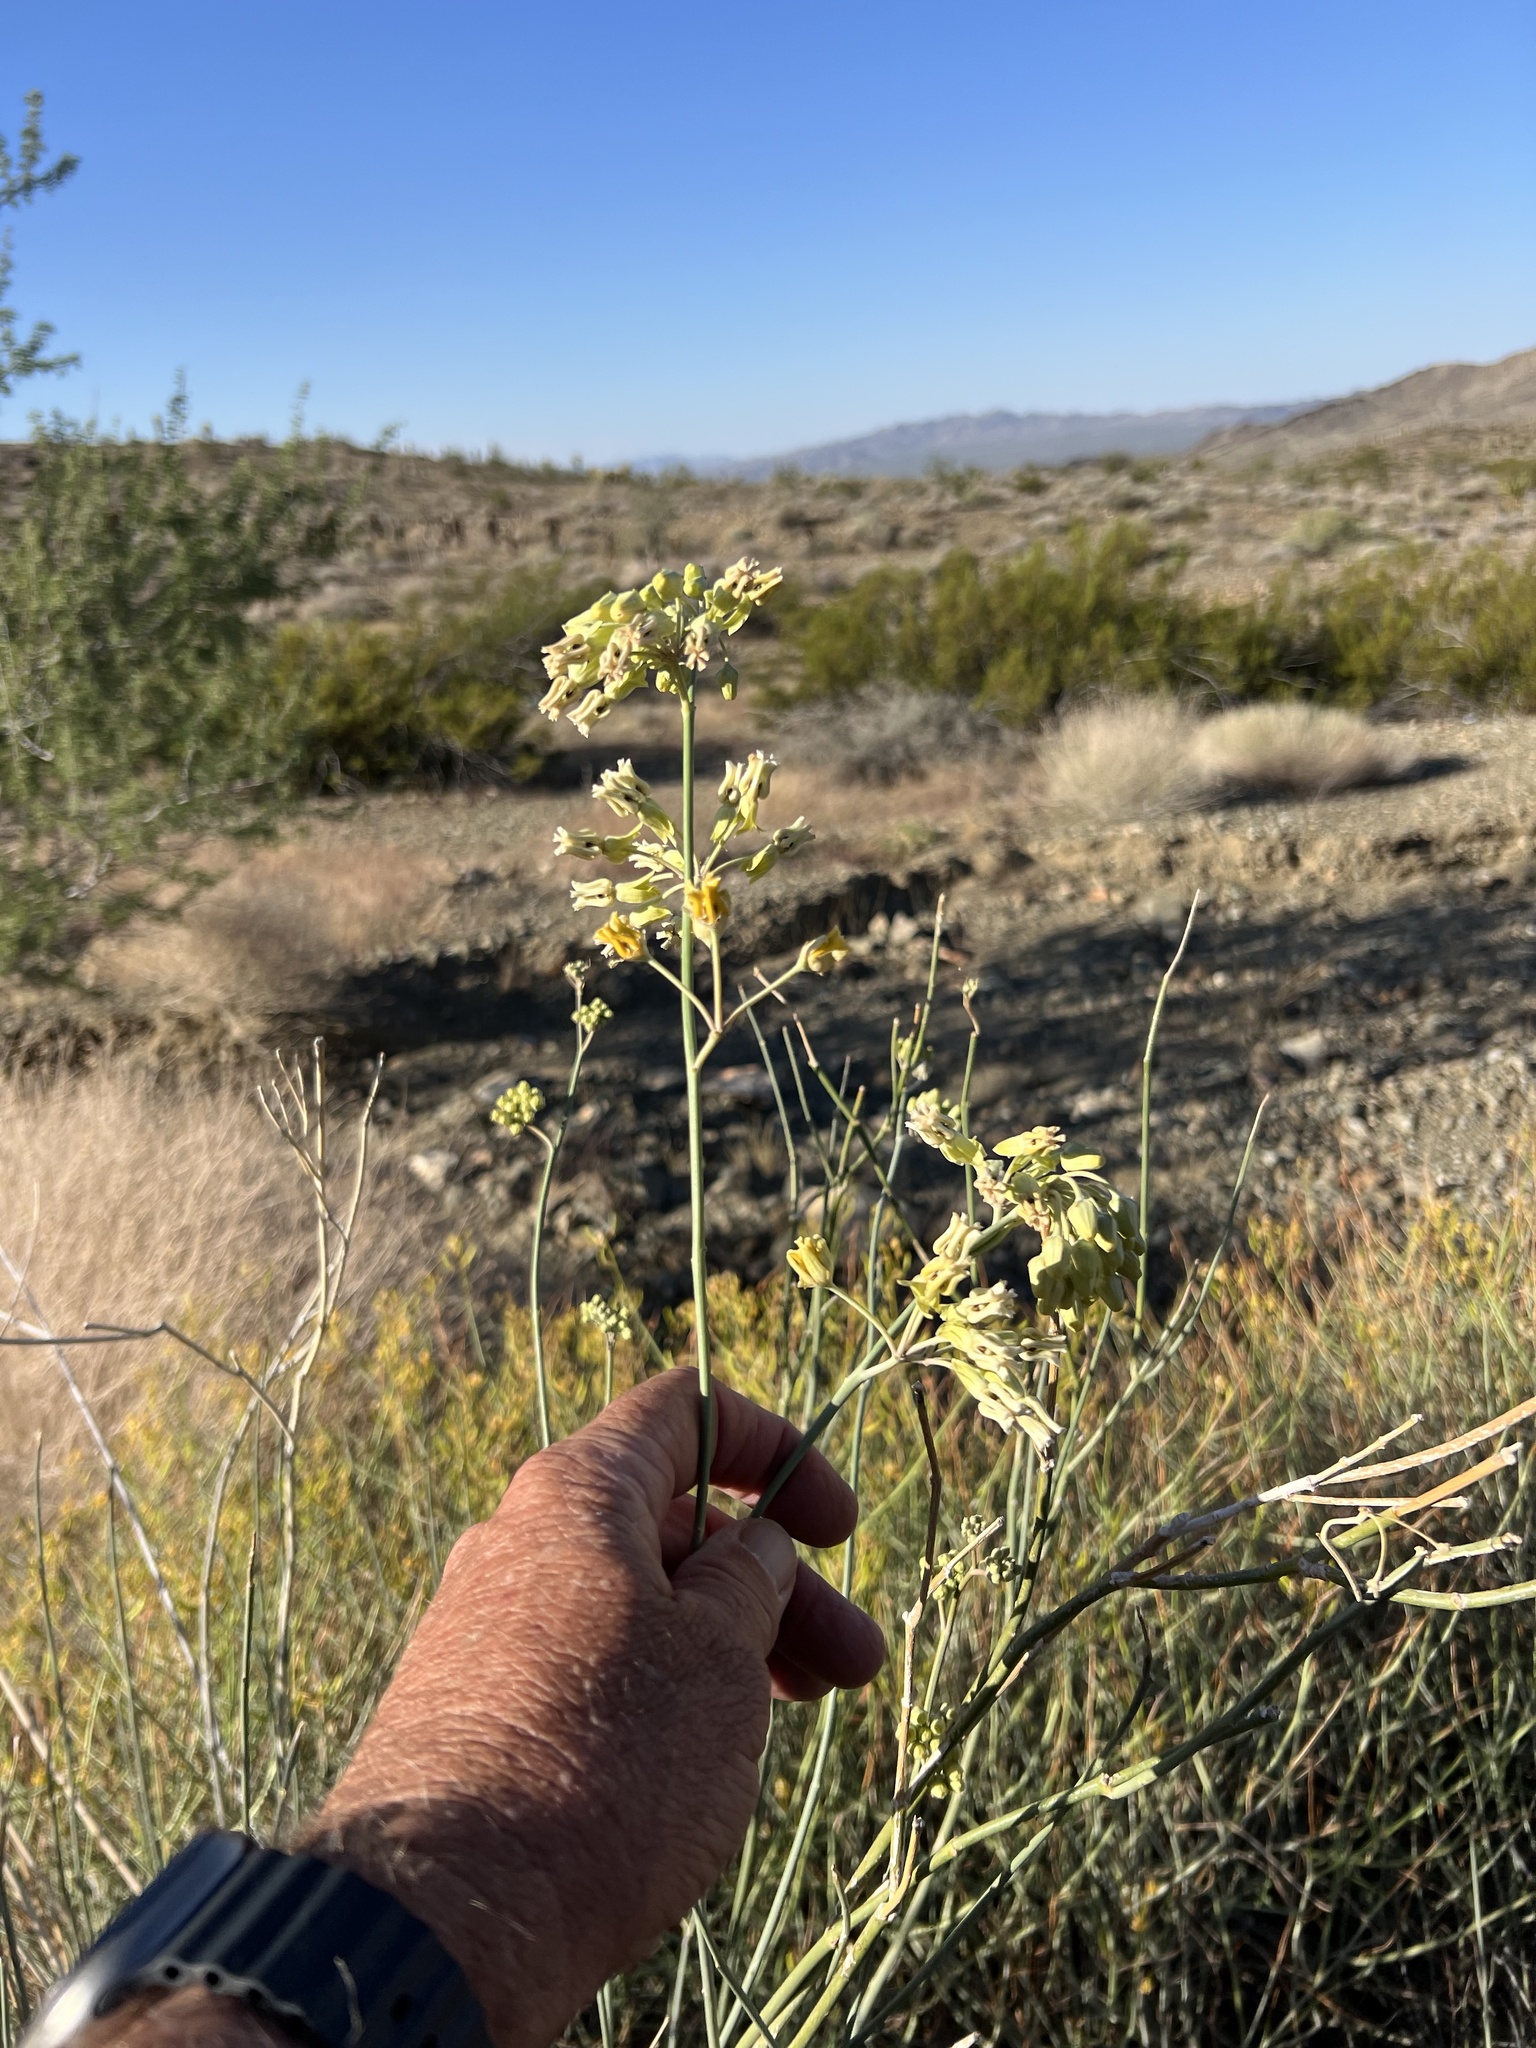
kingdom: Plantae
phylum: Tracheophyta
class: Magnoliopsida
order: Gentianales
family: Apocynaceae
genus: Asclepias
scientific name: Asclepias subulata
